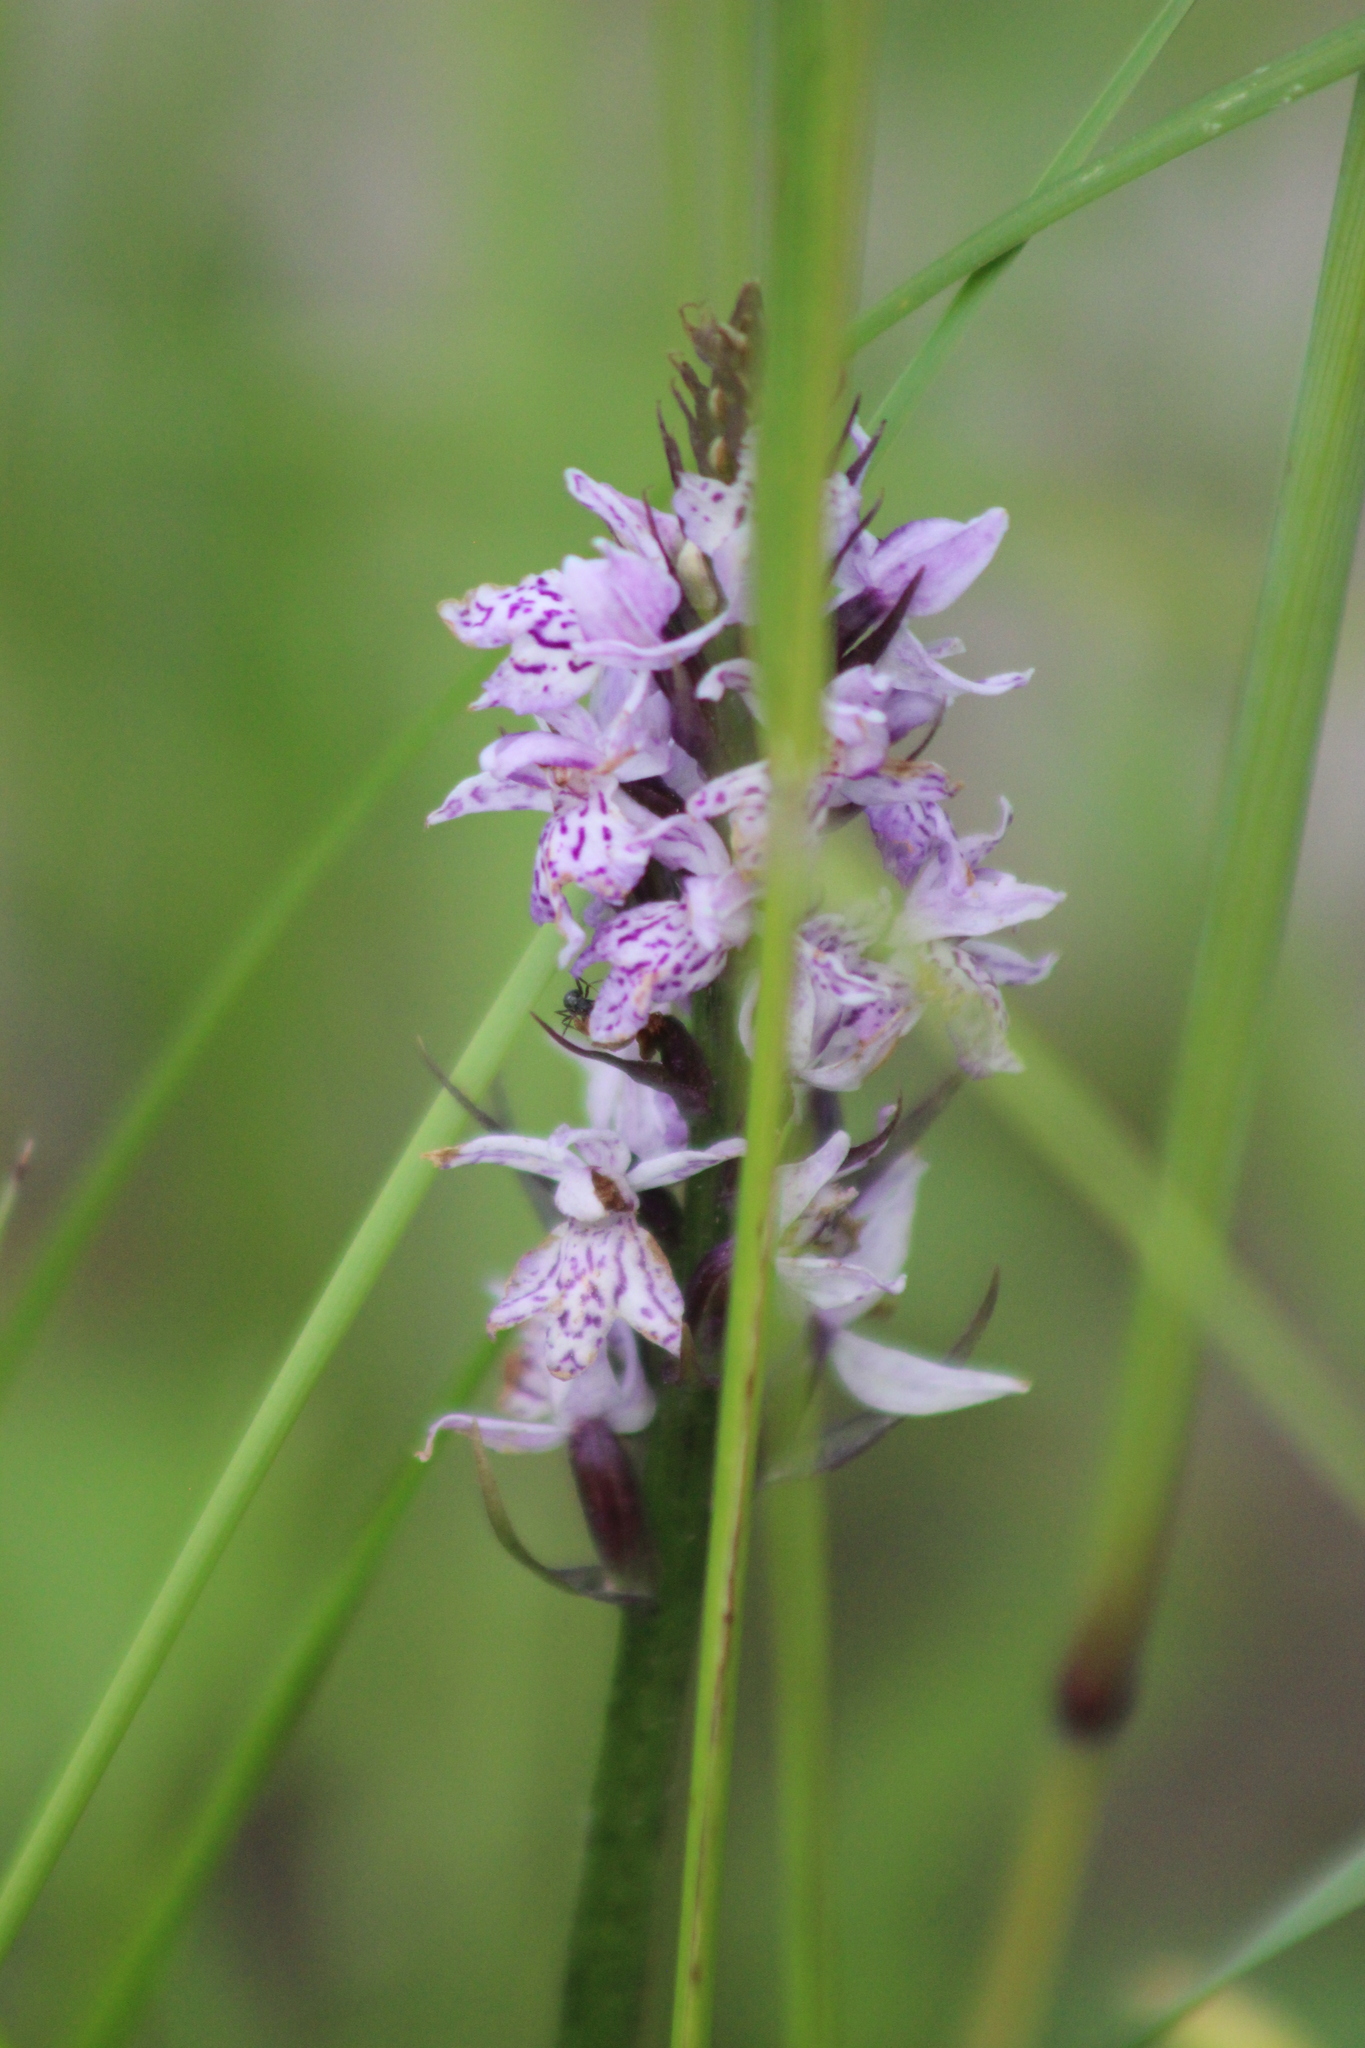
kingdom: Plantae
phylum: Tracheophyta
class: Liliopsida
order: Asparagales
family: Orchidaceae
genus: Dactylorhiza
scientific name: Dactylorhiza maculata
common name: Heath spotted-orchid
